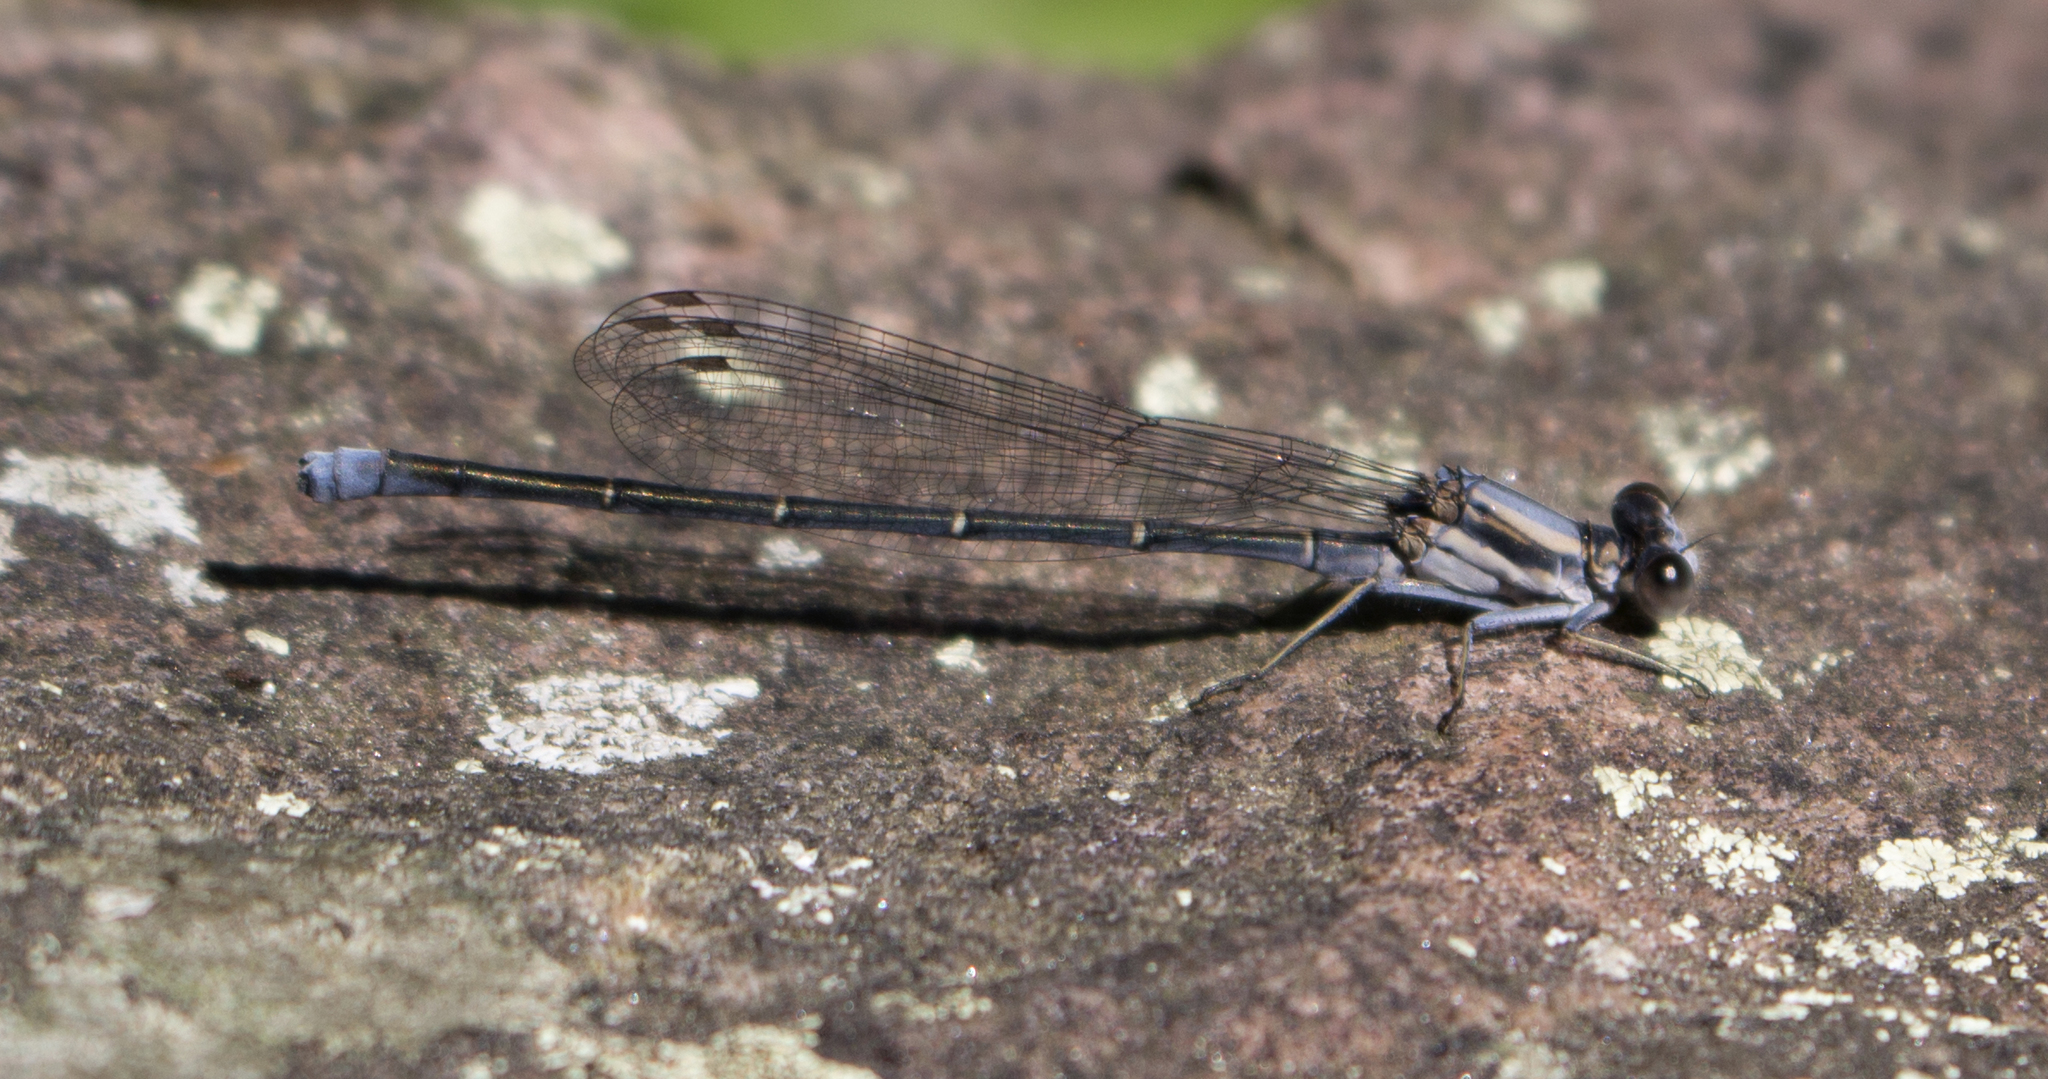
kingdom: Animalia
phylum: Arthropoda
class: Insecta
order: Odonata
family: Coenagrionidae
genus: Argia
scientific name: Argia moesta
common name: Powdered dancer
